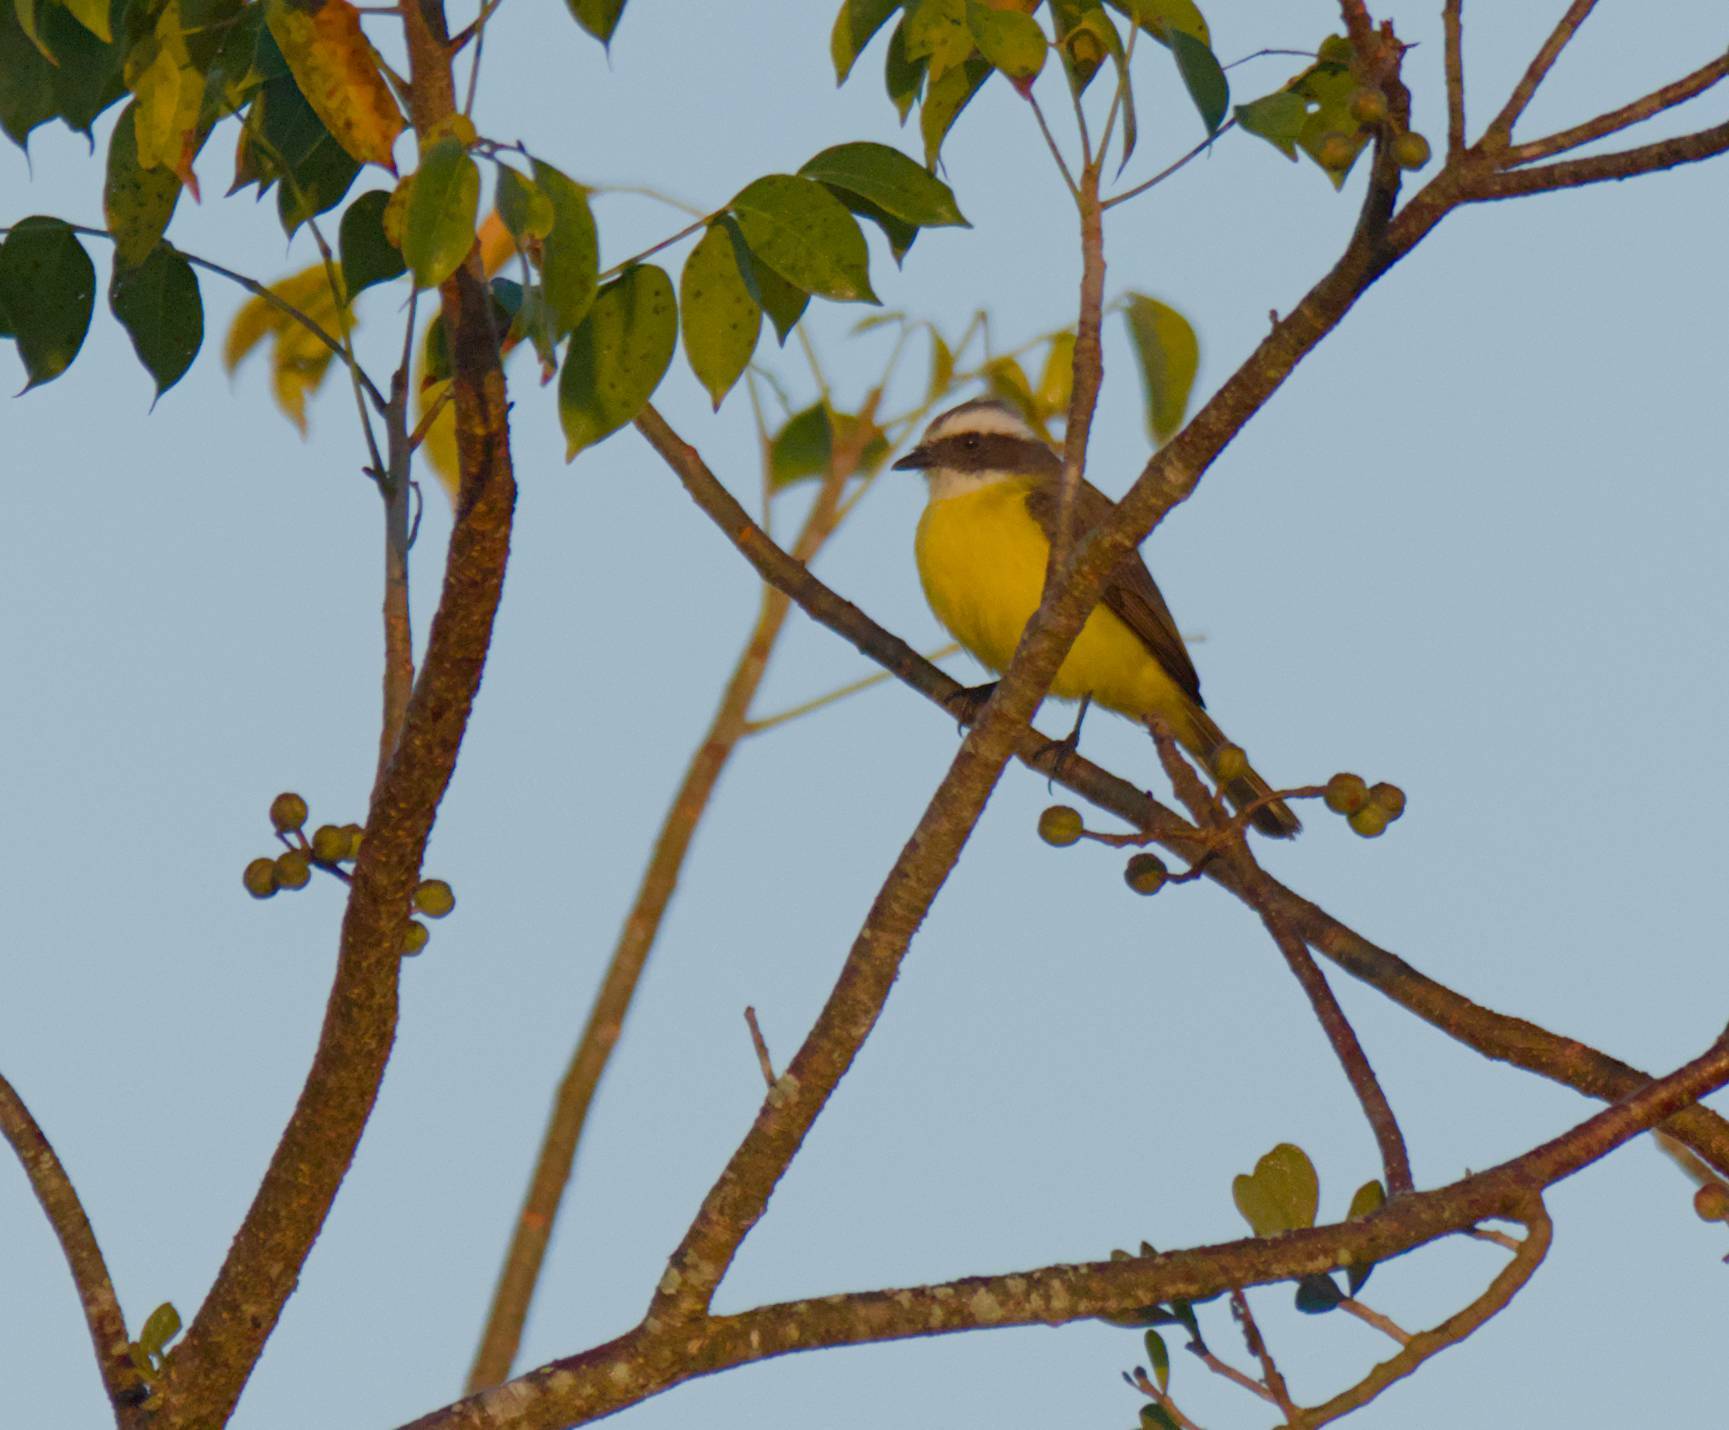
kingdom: Animalia
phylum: Chordata
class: Aves
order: Passeriformes
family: Tyrannidae
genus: Myiozetetes
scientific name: Myiozetetes similis
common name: Social flycatcher
